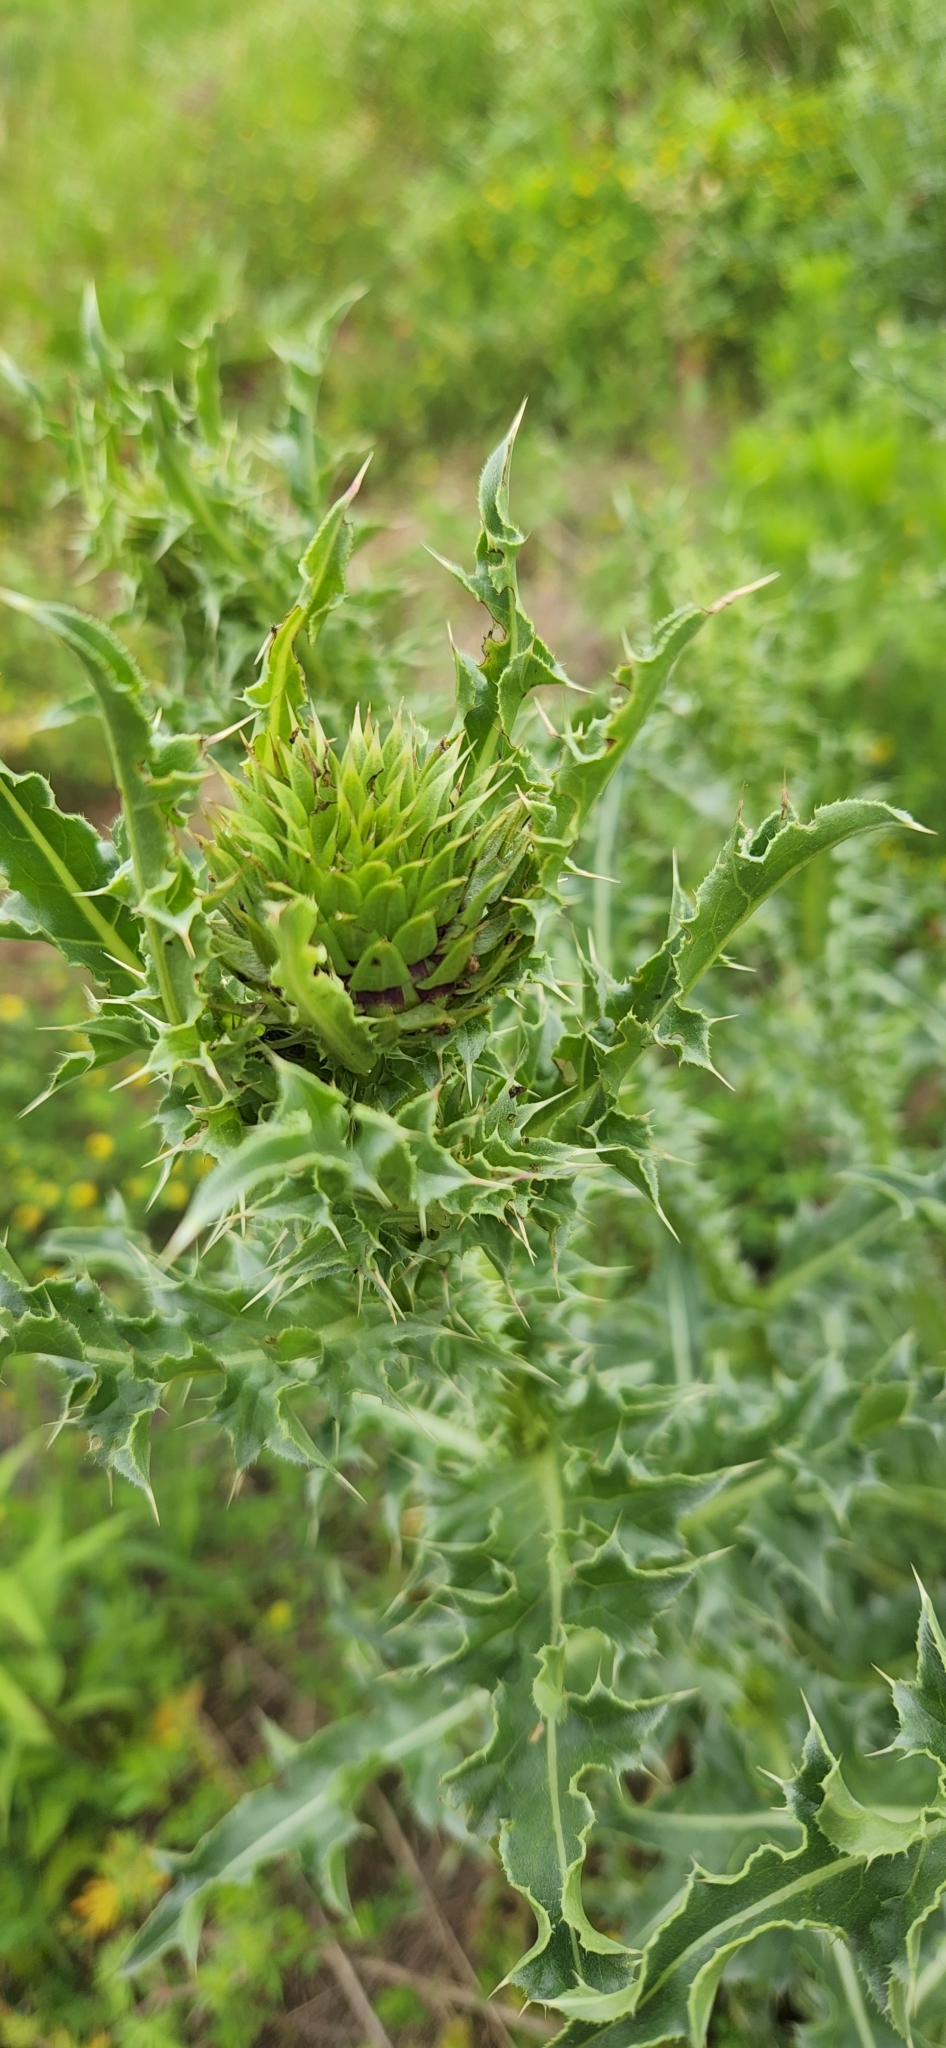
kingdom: Plantae
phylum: Tracheophyta
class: Magnoliopsida
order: Asterales
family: Asteraceae
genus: Carduus
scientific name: Carduus nutans
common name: Musk thistle
